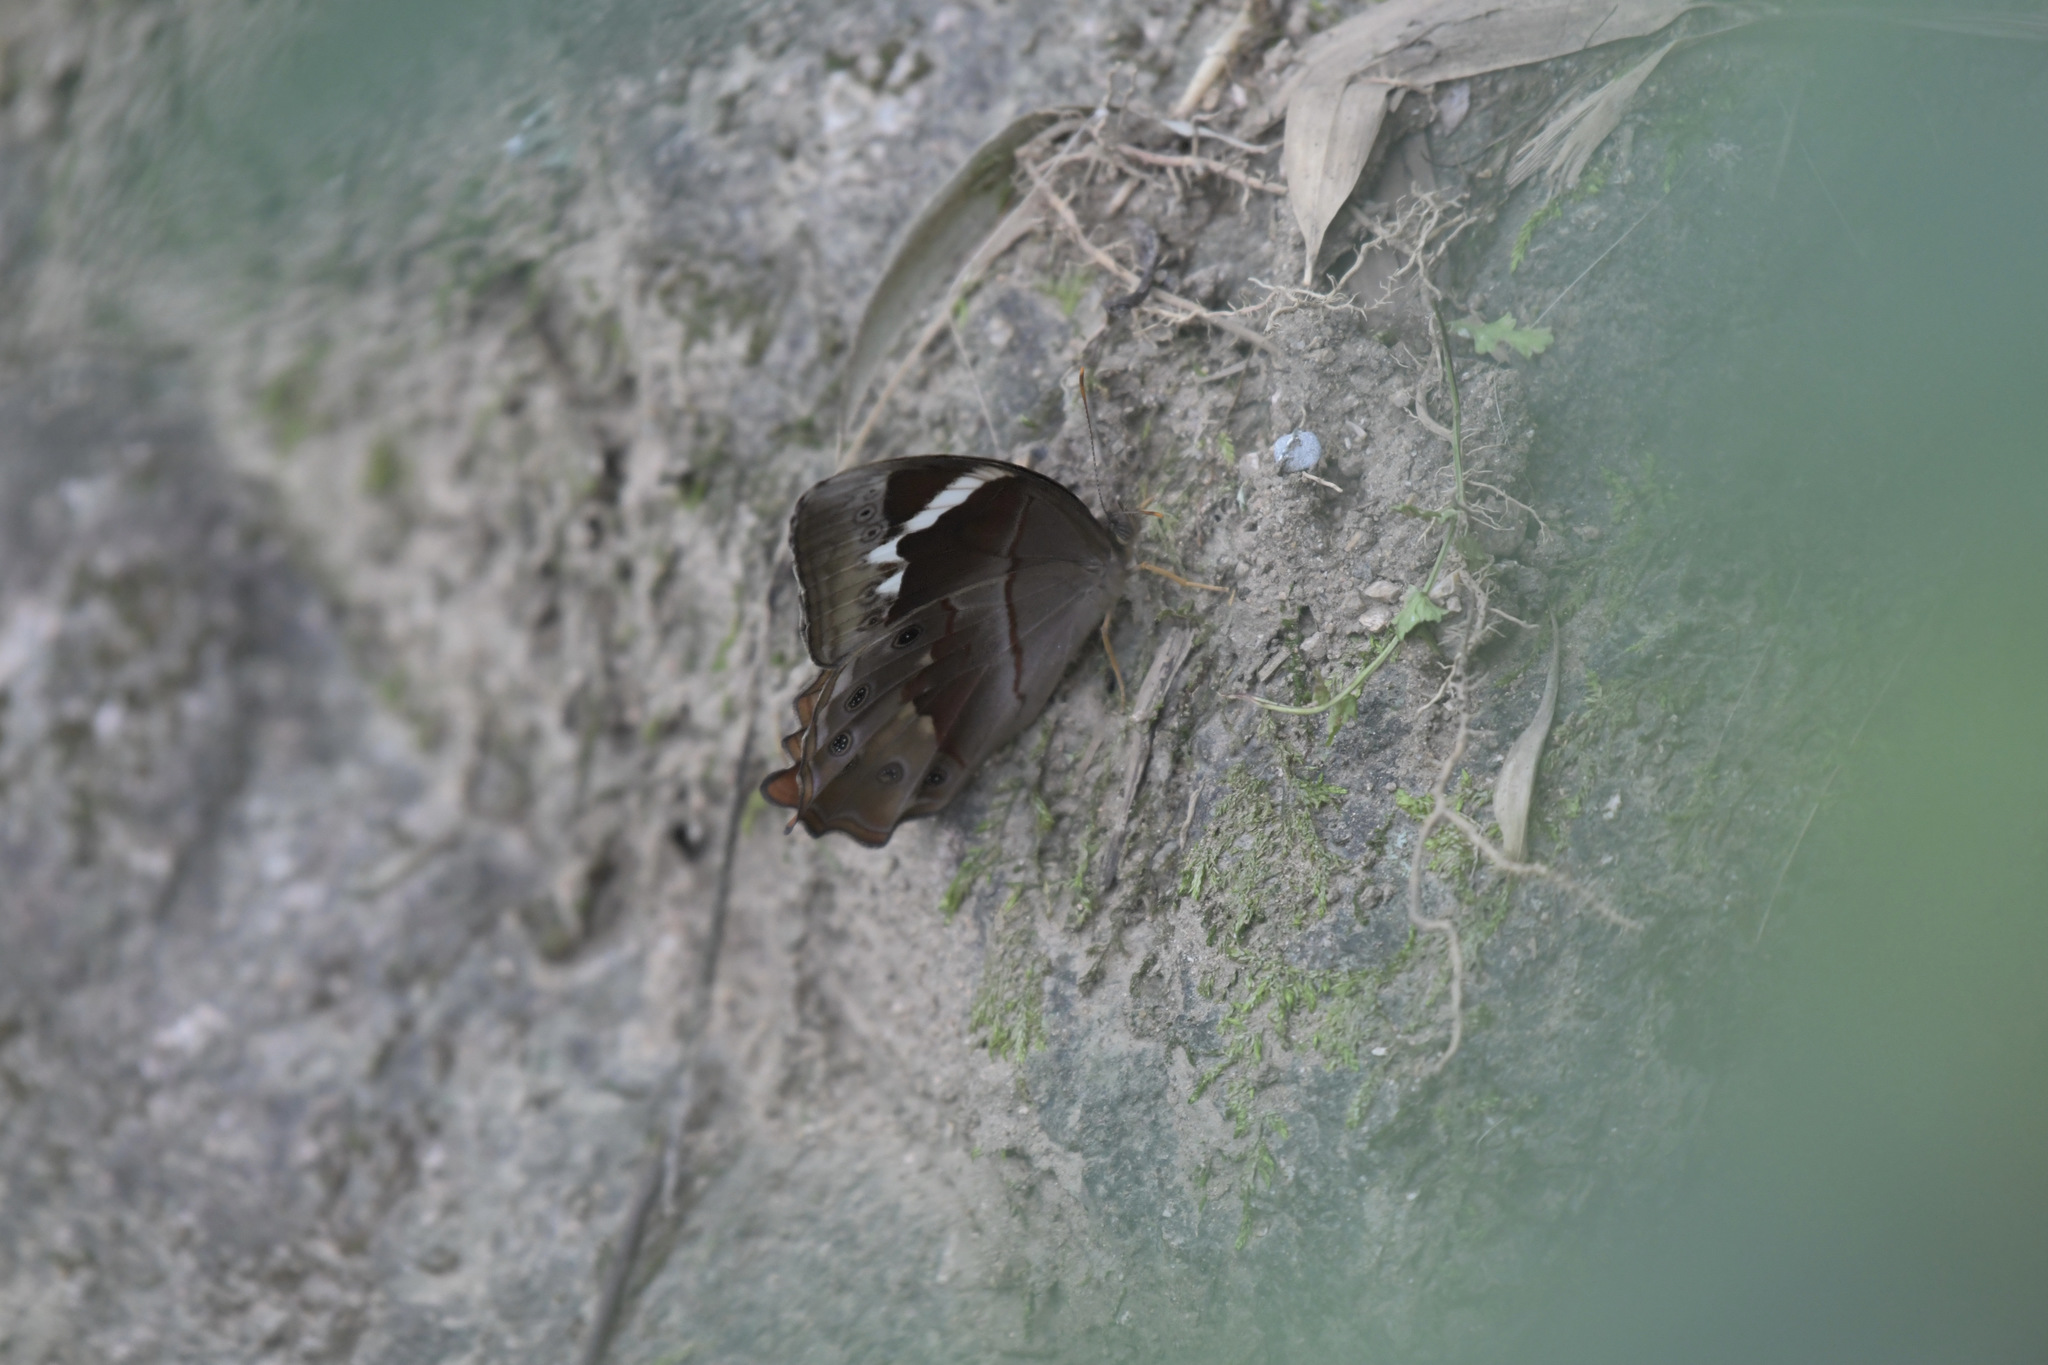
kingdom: Animalia
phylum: Arthropoda
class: Insecta
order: Lepidoptera
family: Nymphalidae
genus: Lethe
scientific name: Lethe chandica
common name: Angled red forester
